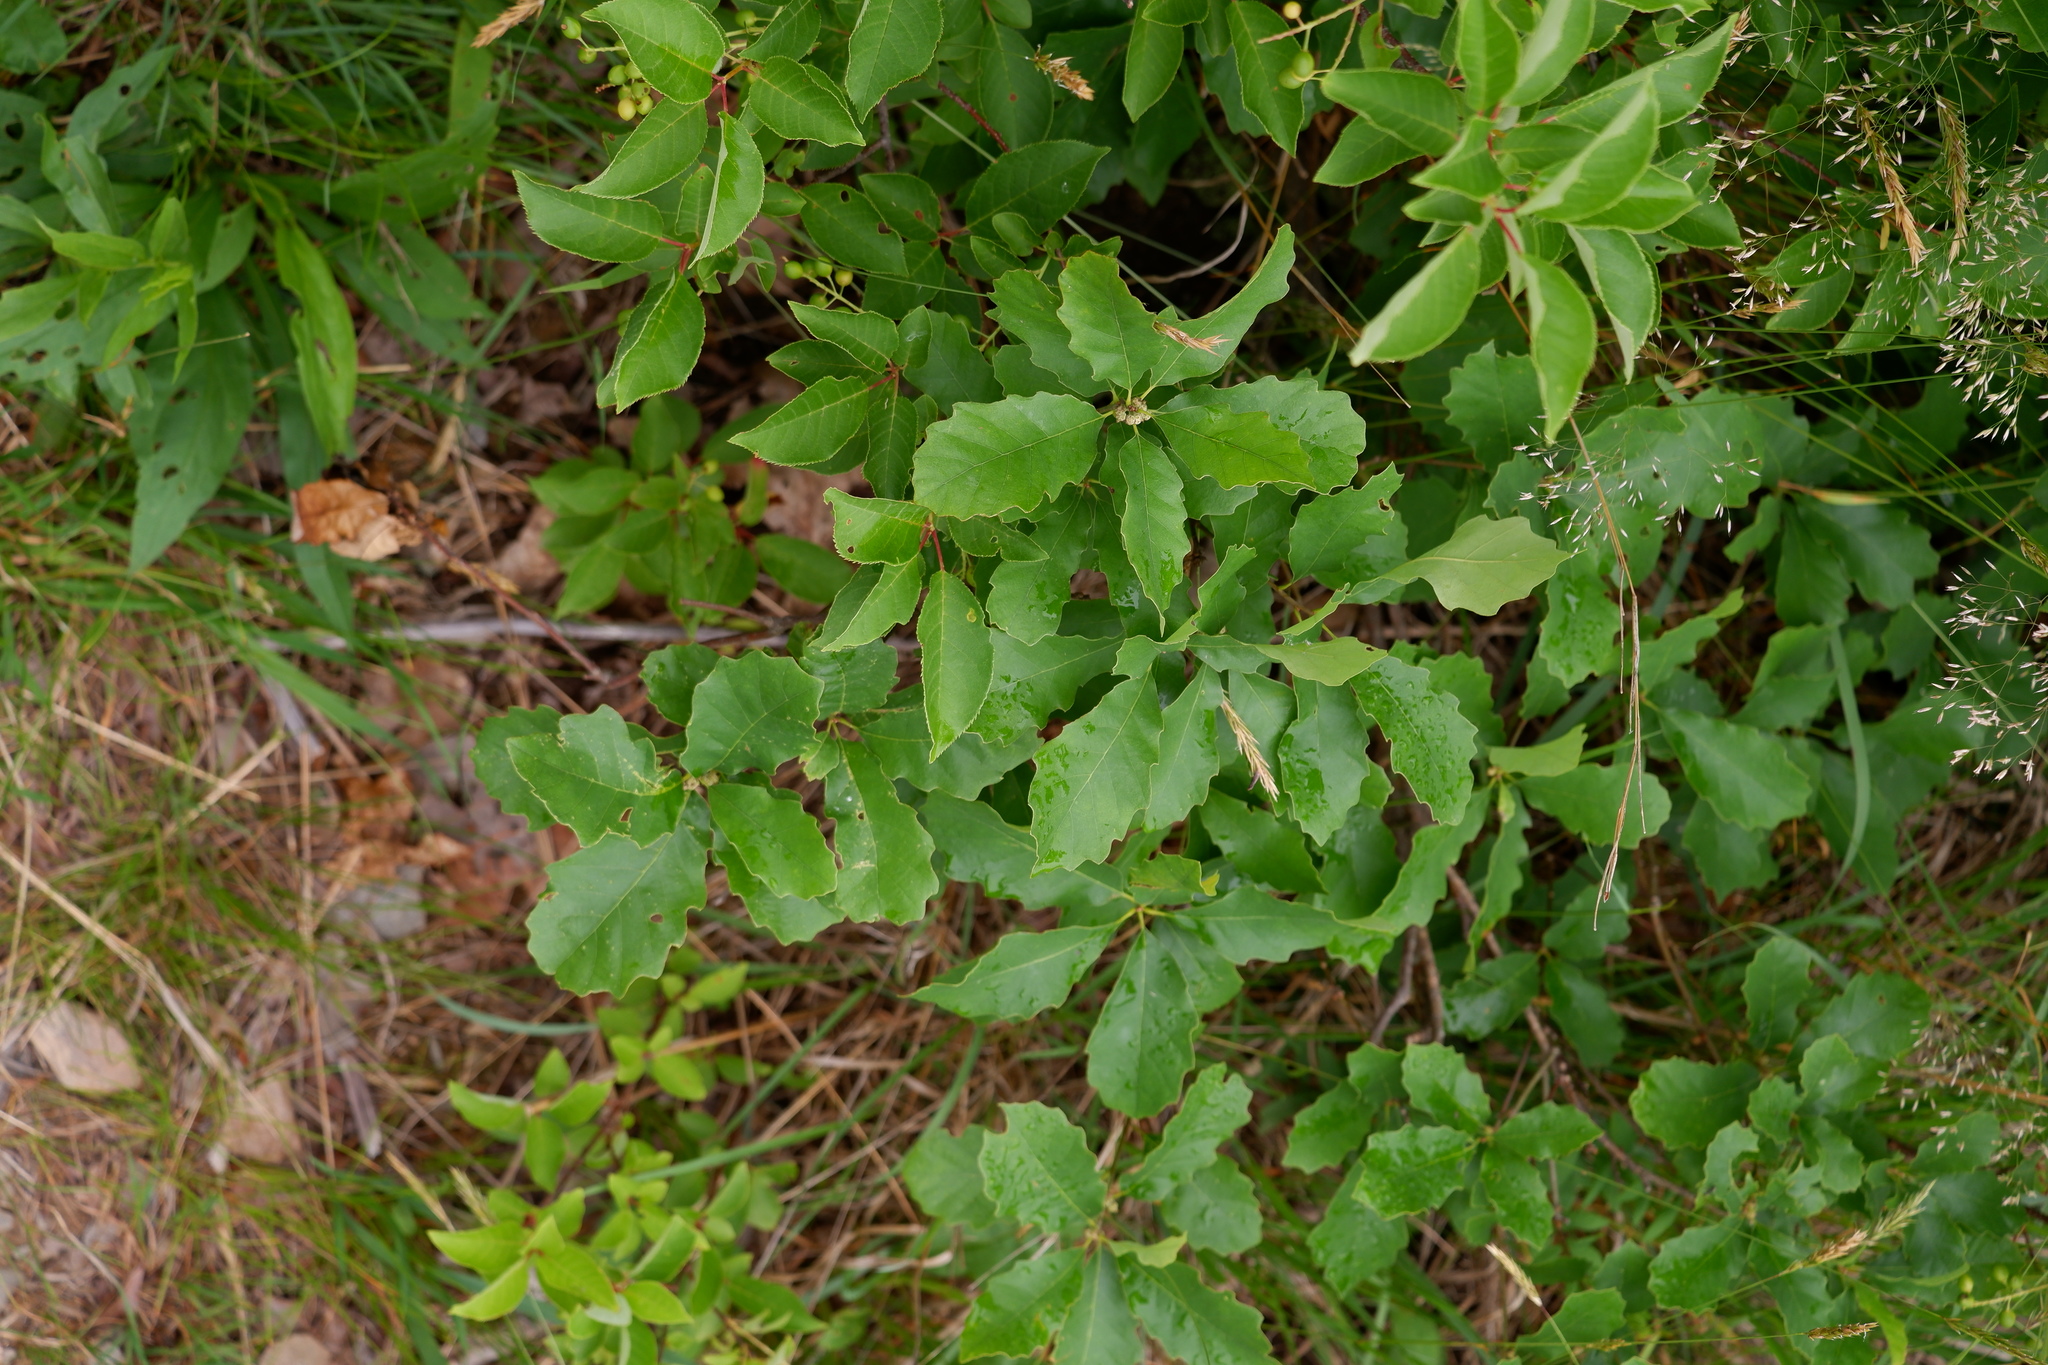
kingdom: Plantae
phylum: Tracheophyta
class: Magnoliopsida
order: Fagales
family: Fagaceae
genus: Quercus
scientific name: Quercus prinoides
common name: Dwarf chinkapin oak
